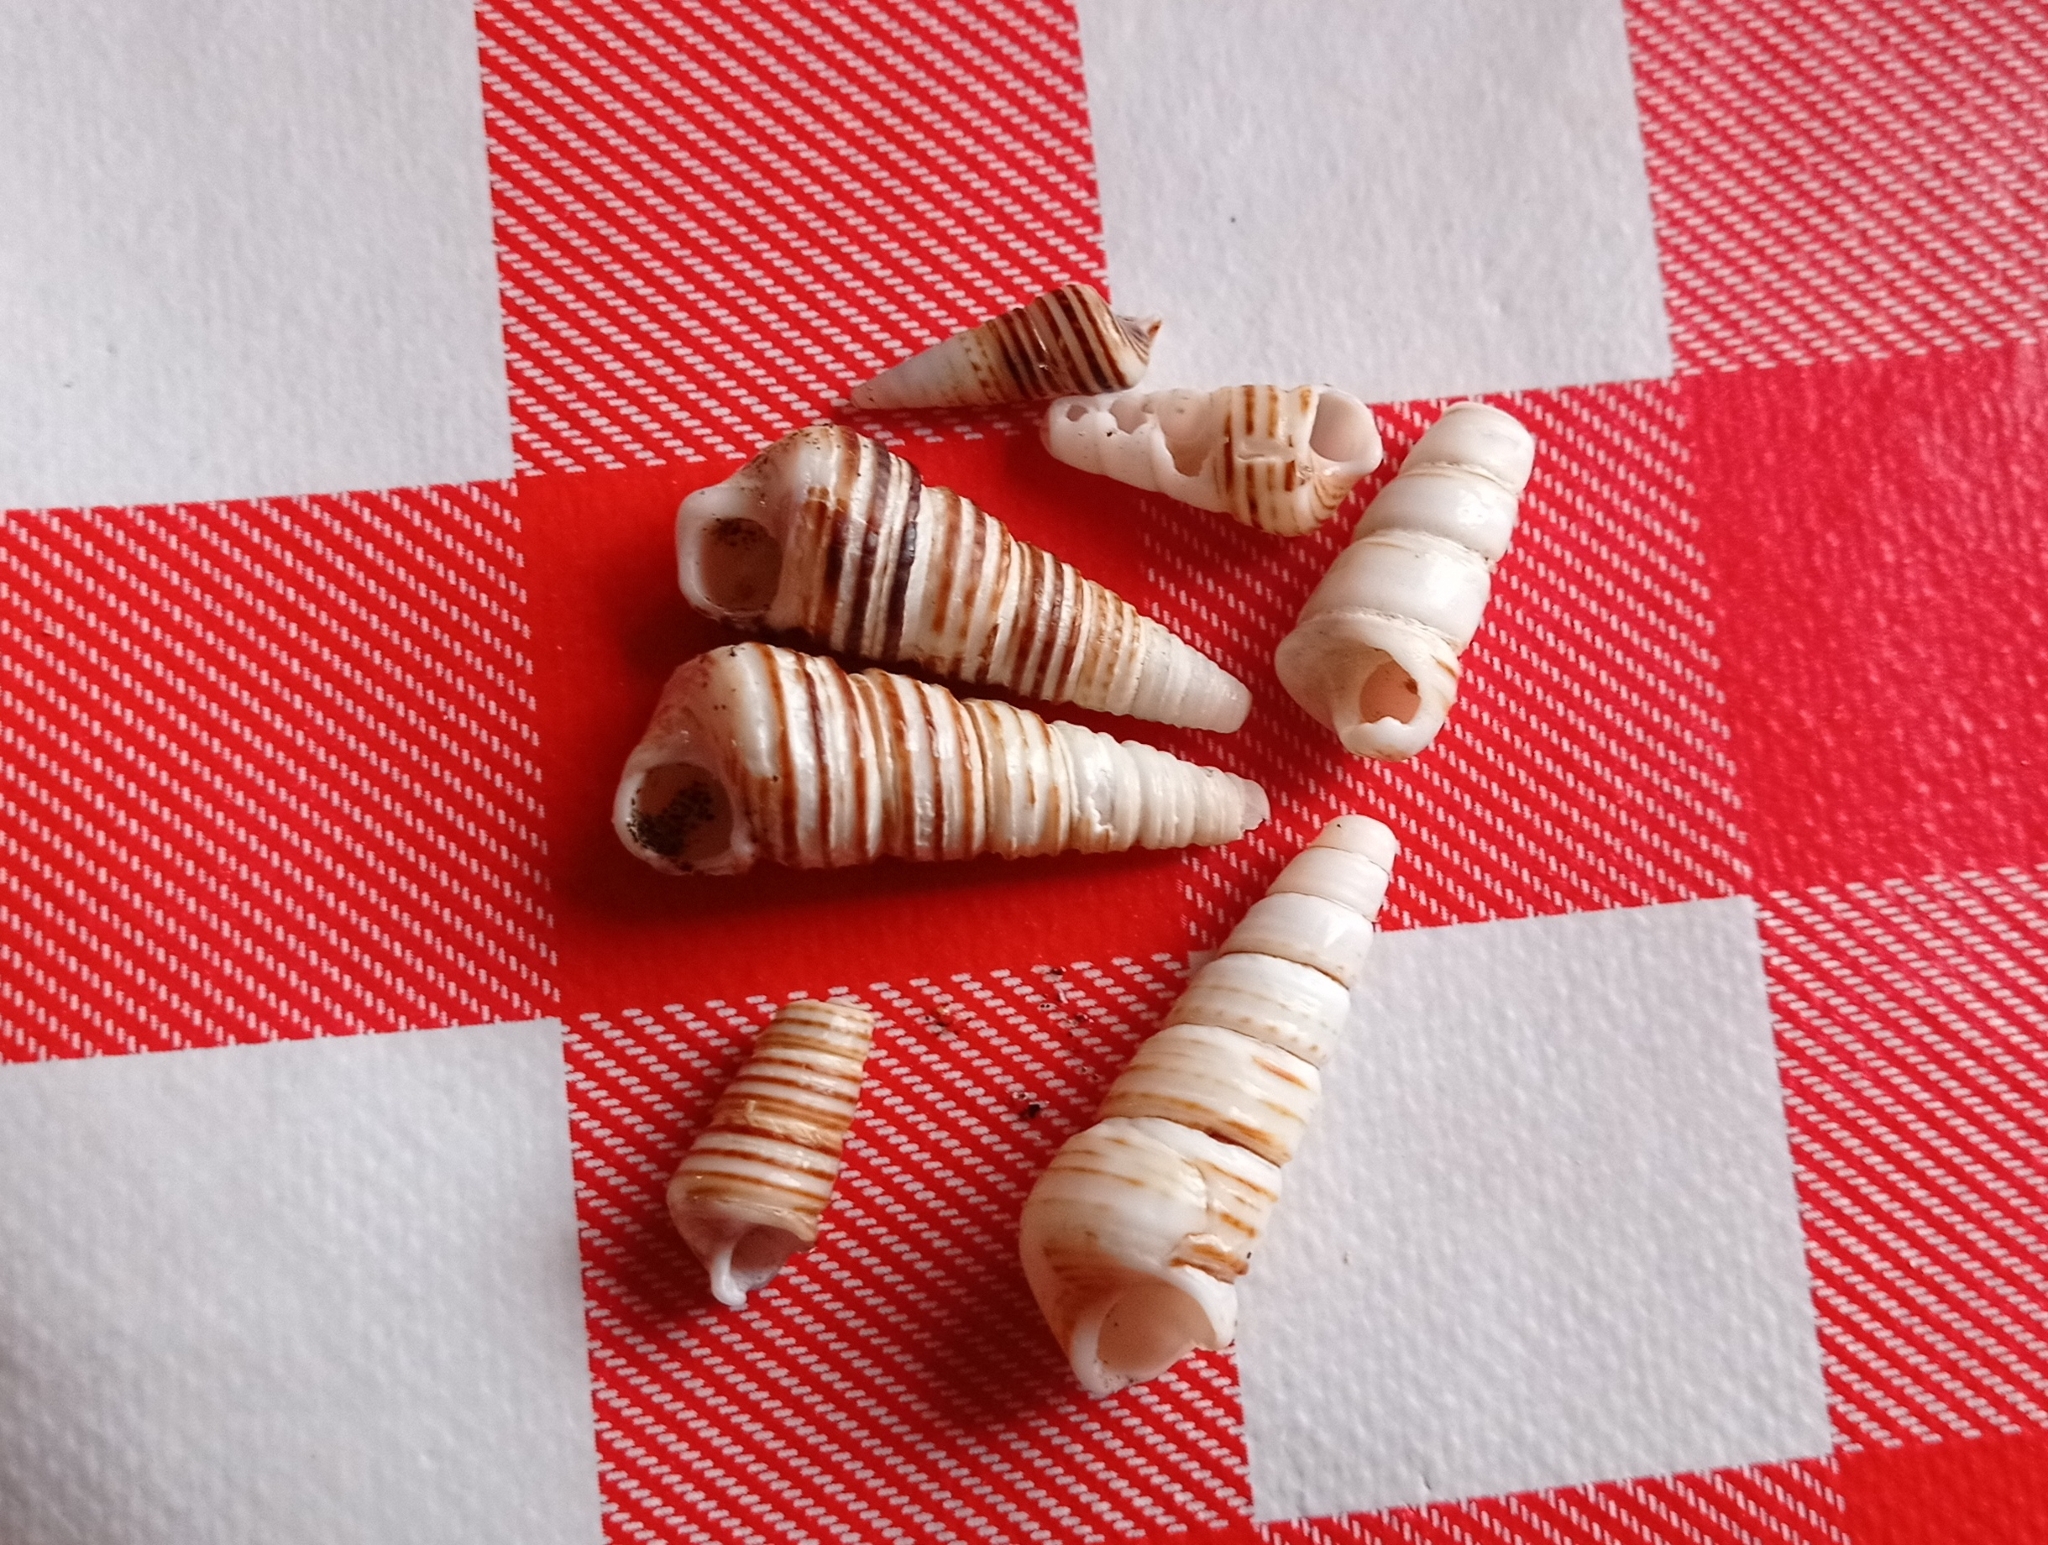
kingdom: Animalia
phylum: Mollusca
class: Gastropoda
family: Turritellidae
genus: Incatella
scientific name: Incatella cingulata
